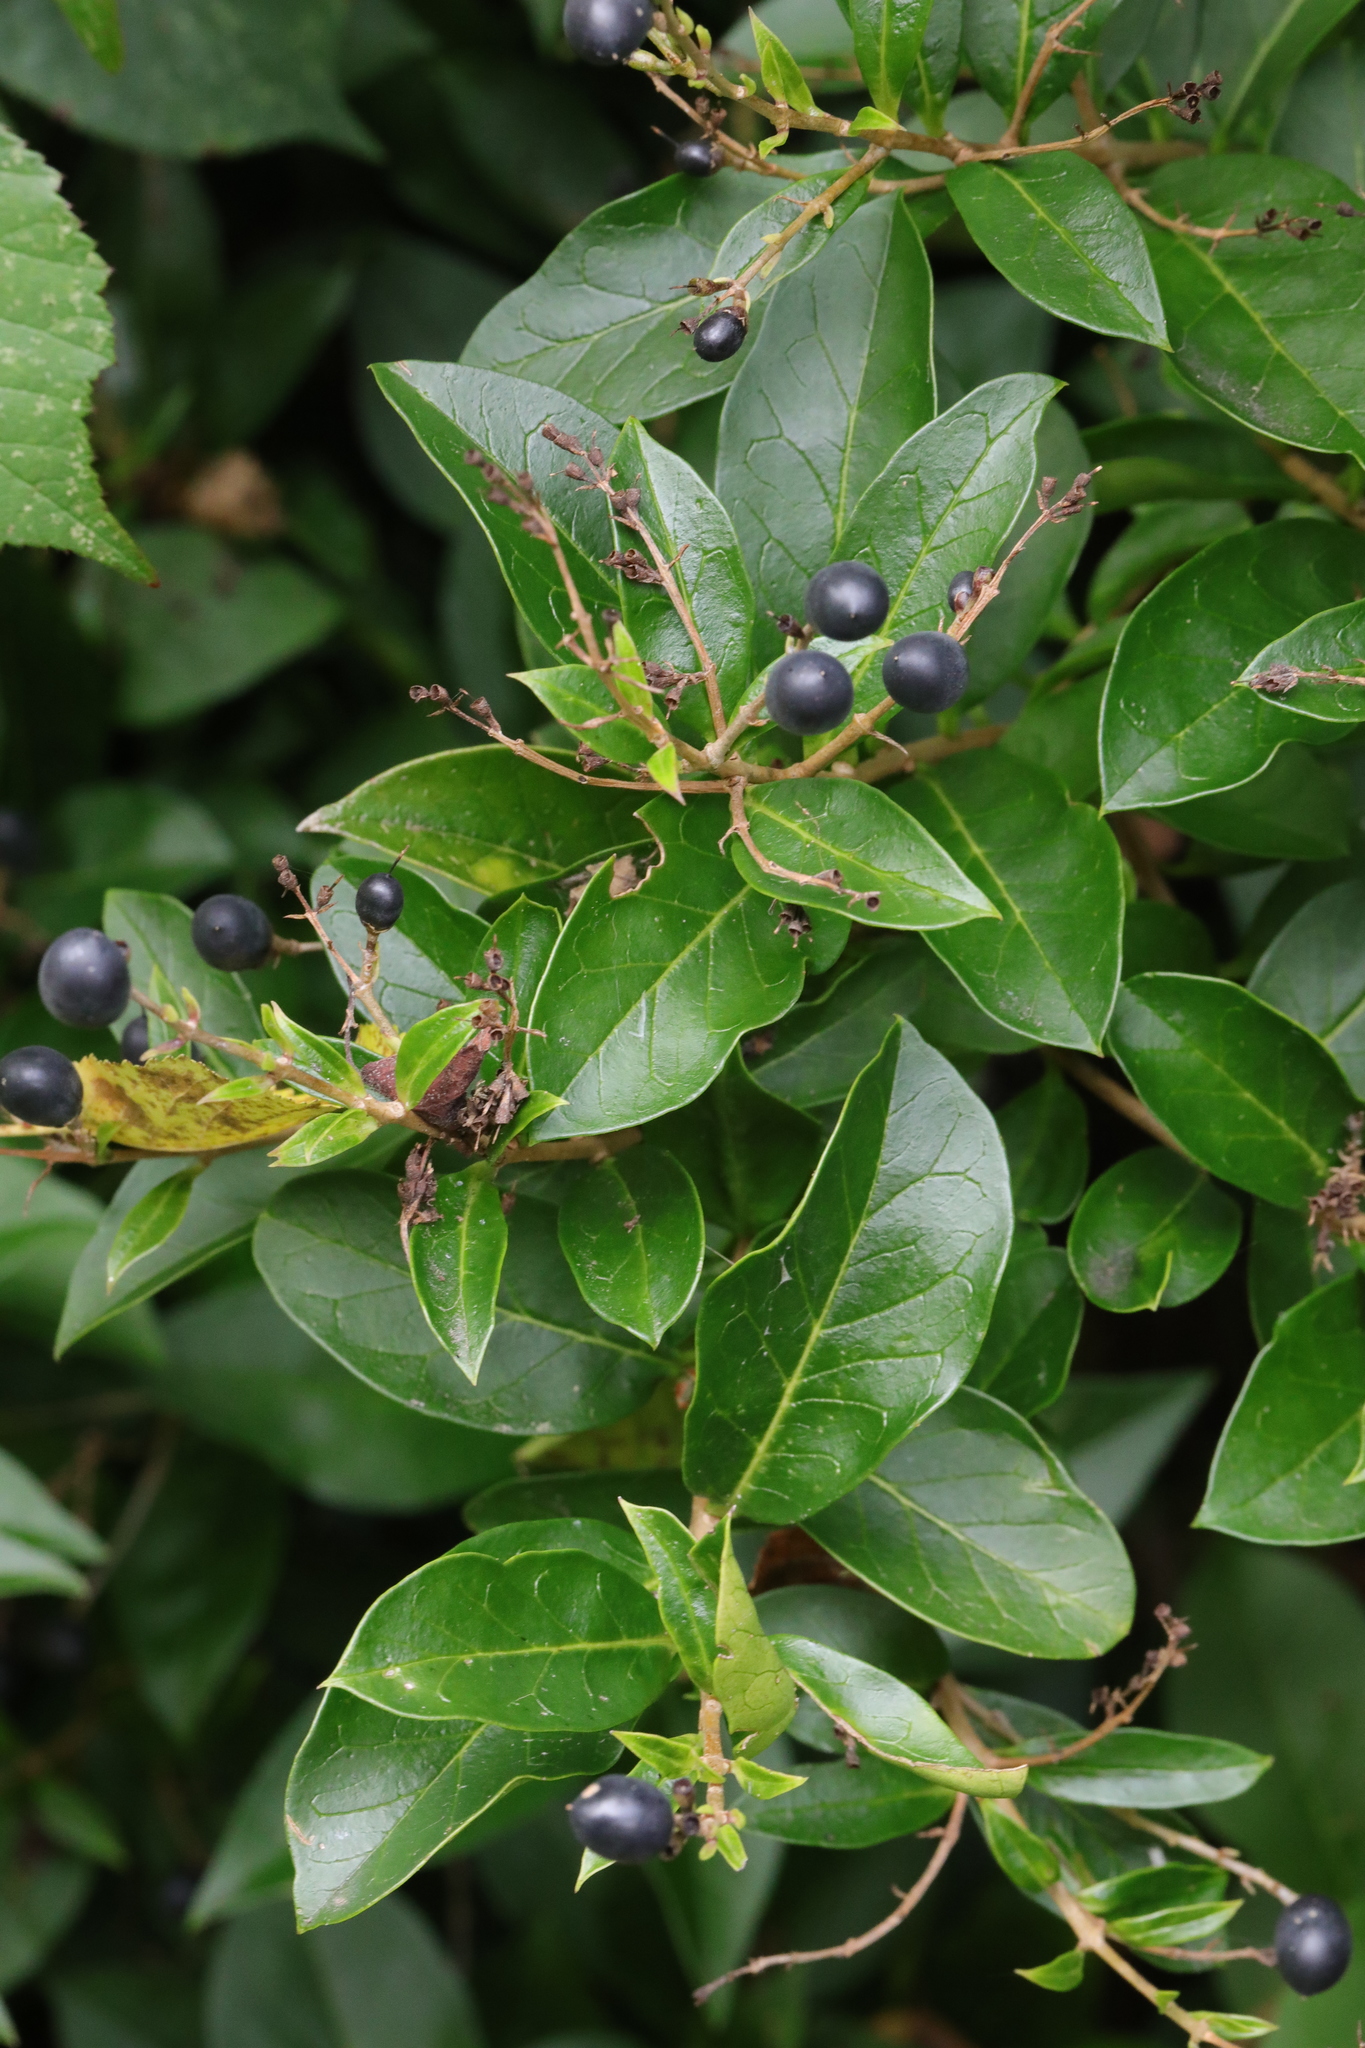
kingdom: Plantae
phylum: Tracheophyta
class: Magnoliopsida
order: Lamiales
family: Oleaceae
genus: Ligustrum
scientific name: Ligustrum ovalifolium
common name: California privet
